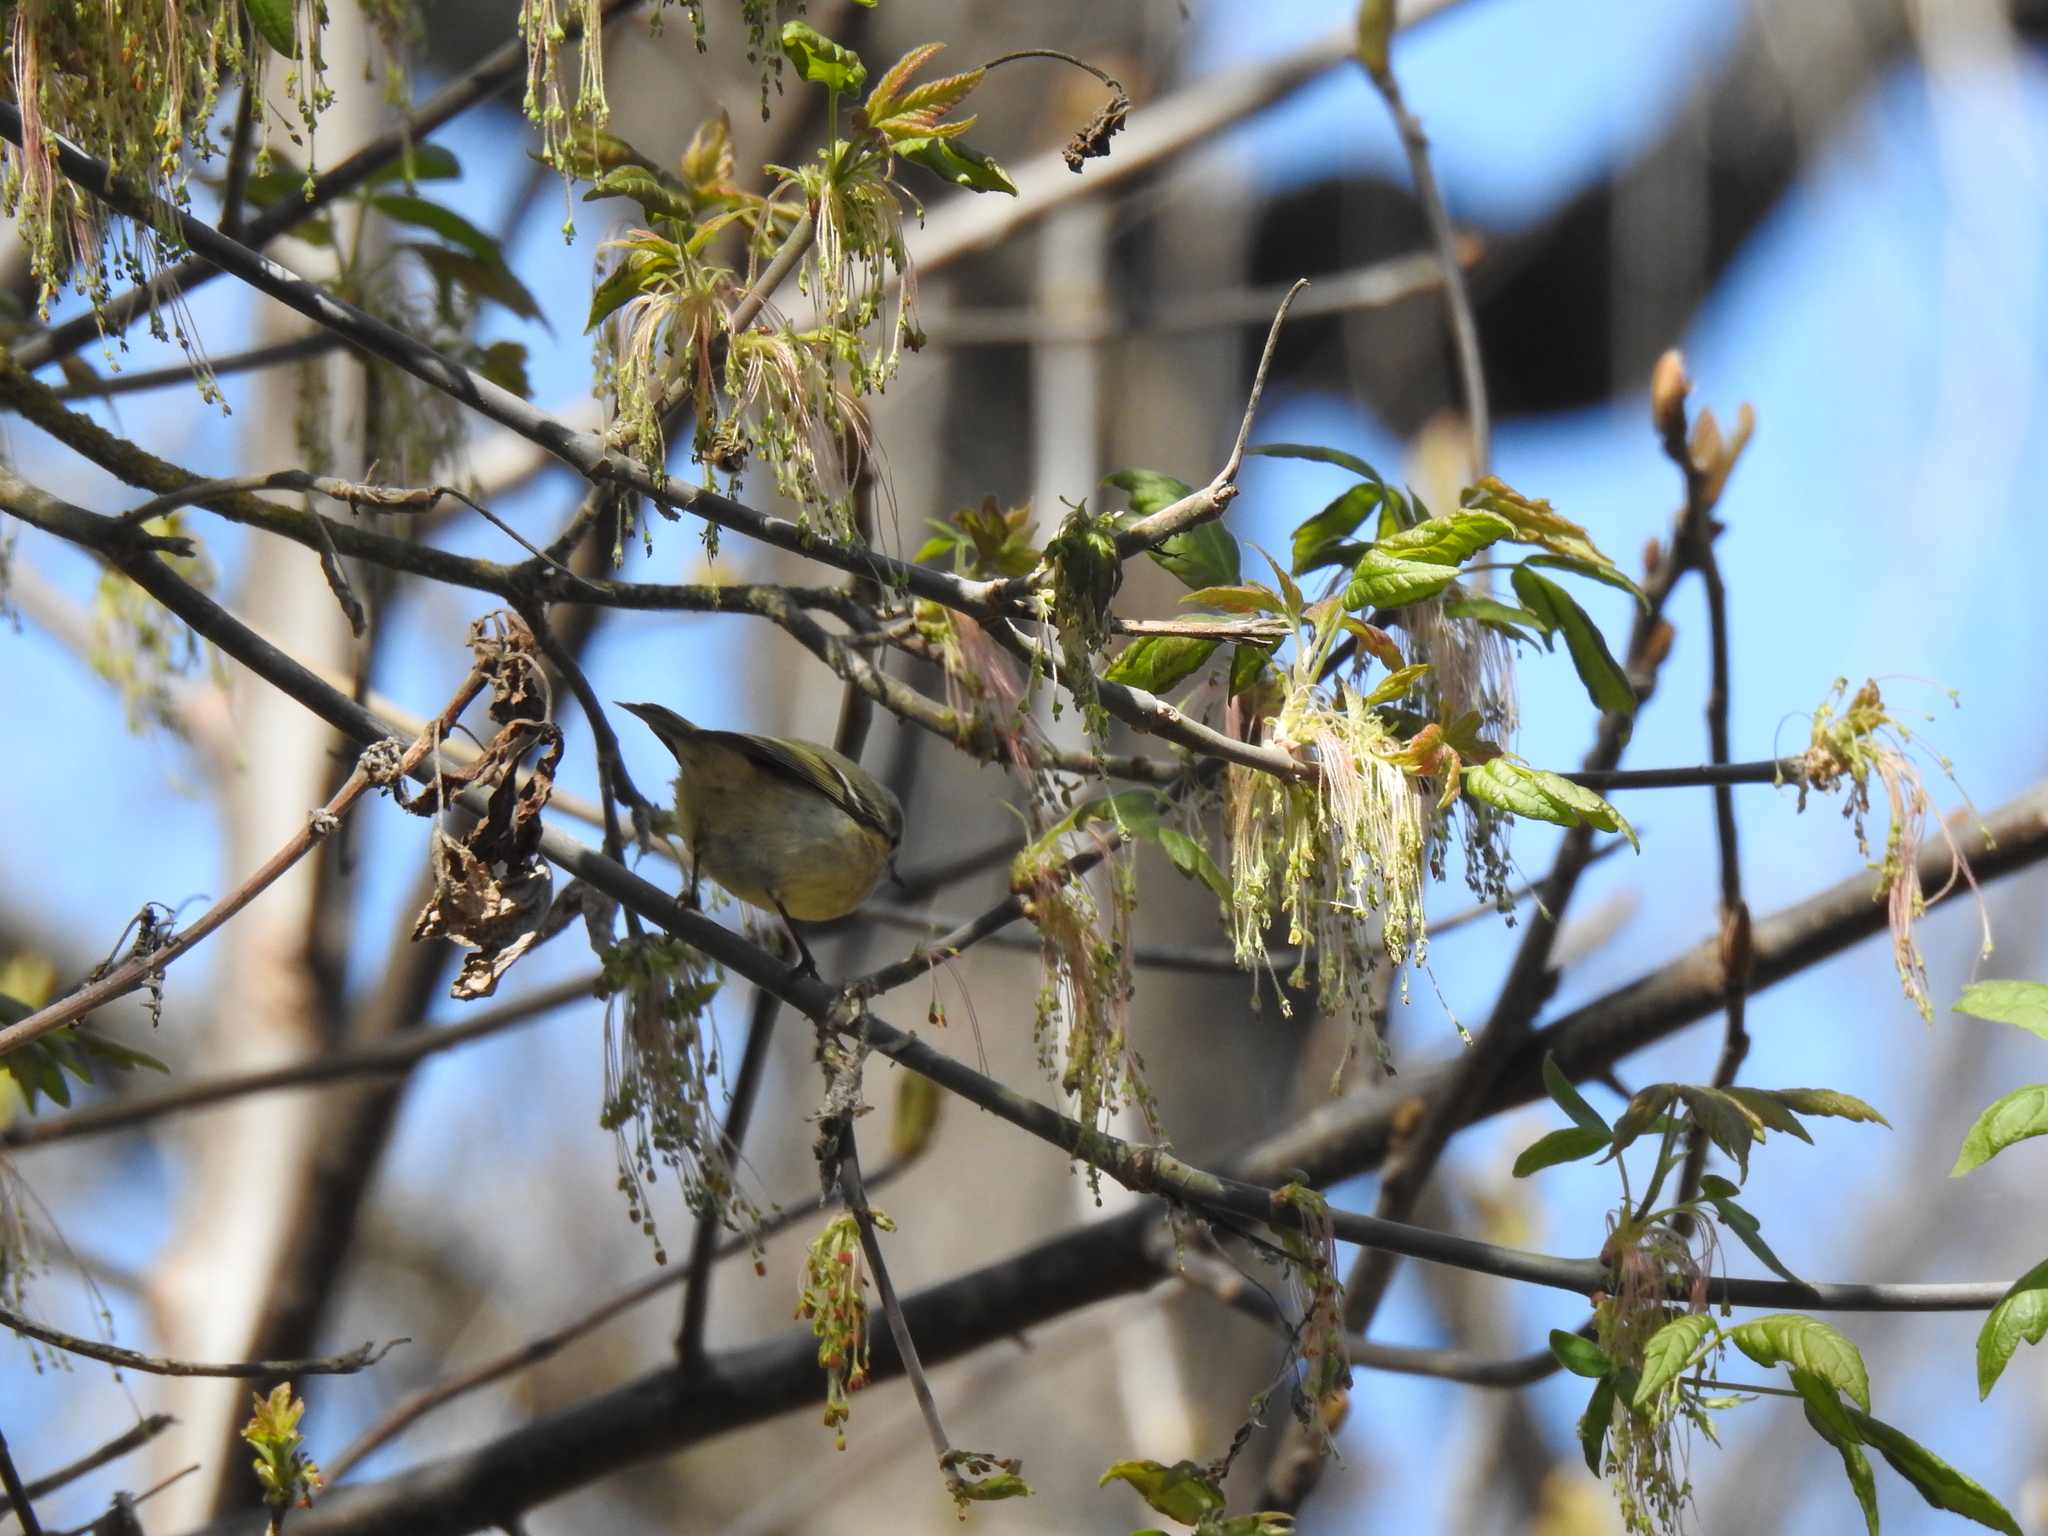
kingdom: Animalia
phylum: Chordata
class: Aves
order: Passeriformes
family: Regulidae
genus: Regulus
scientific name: Regulus calendula
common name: Ruby-crowned kinglet
